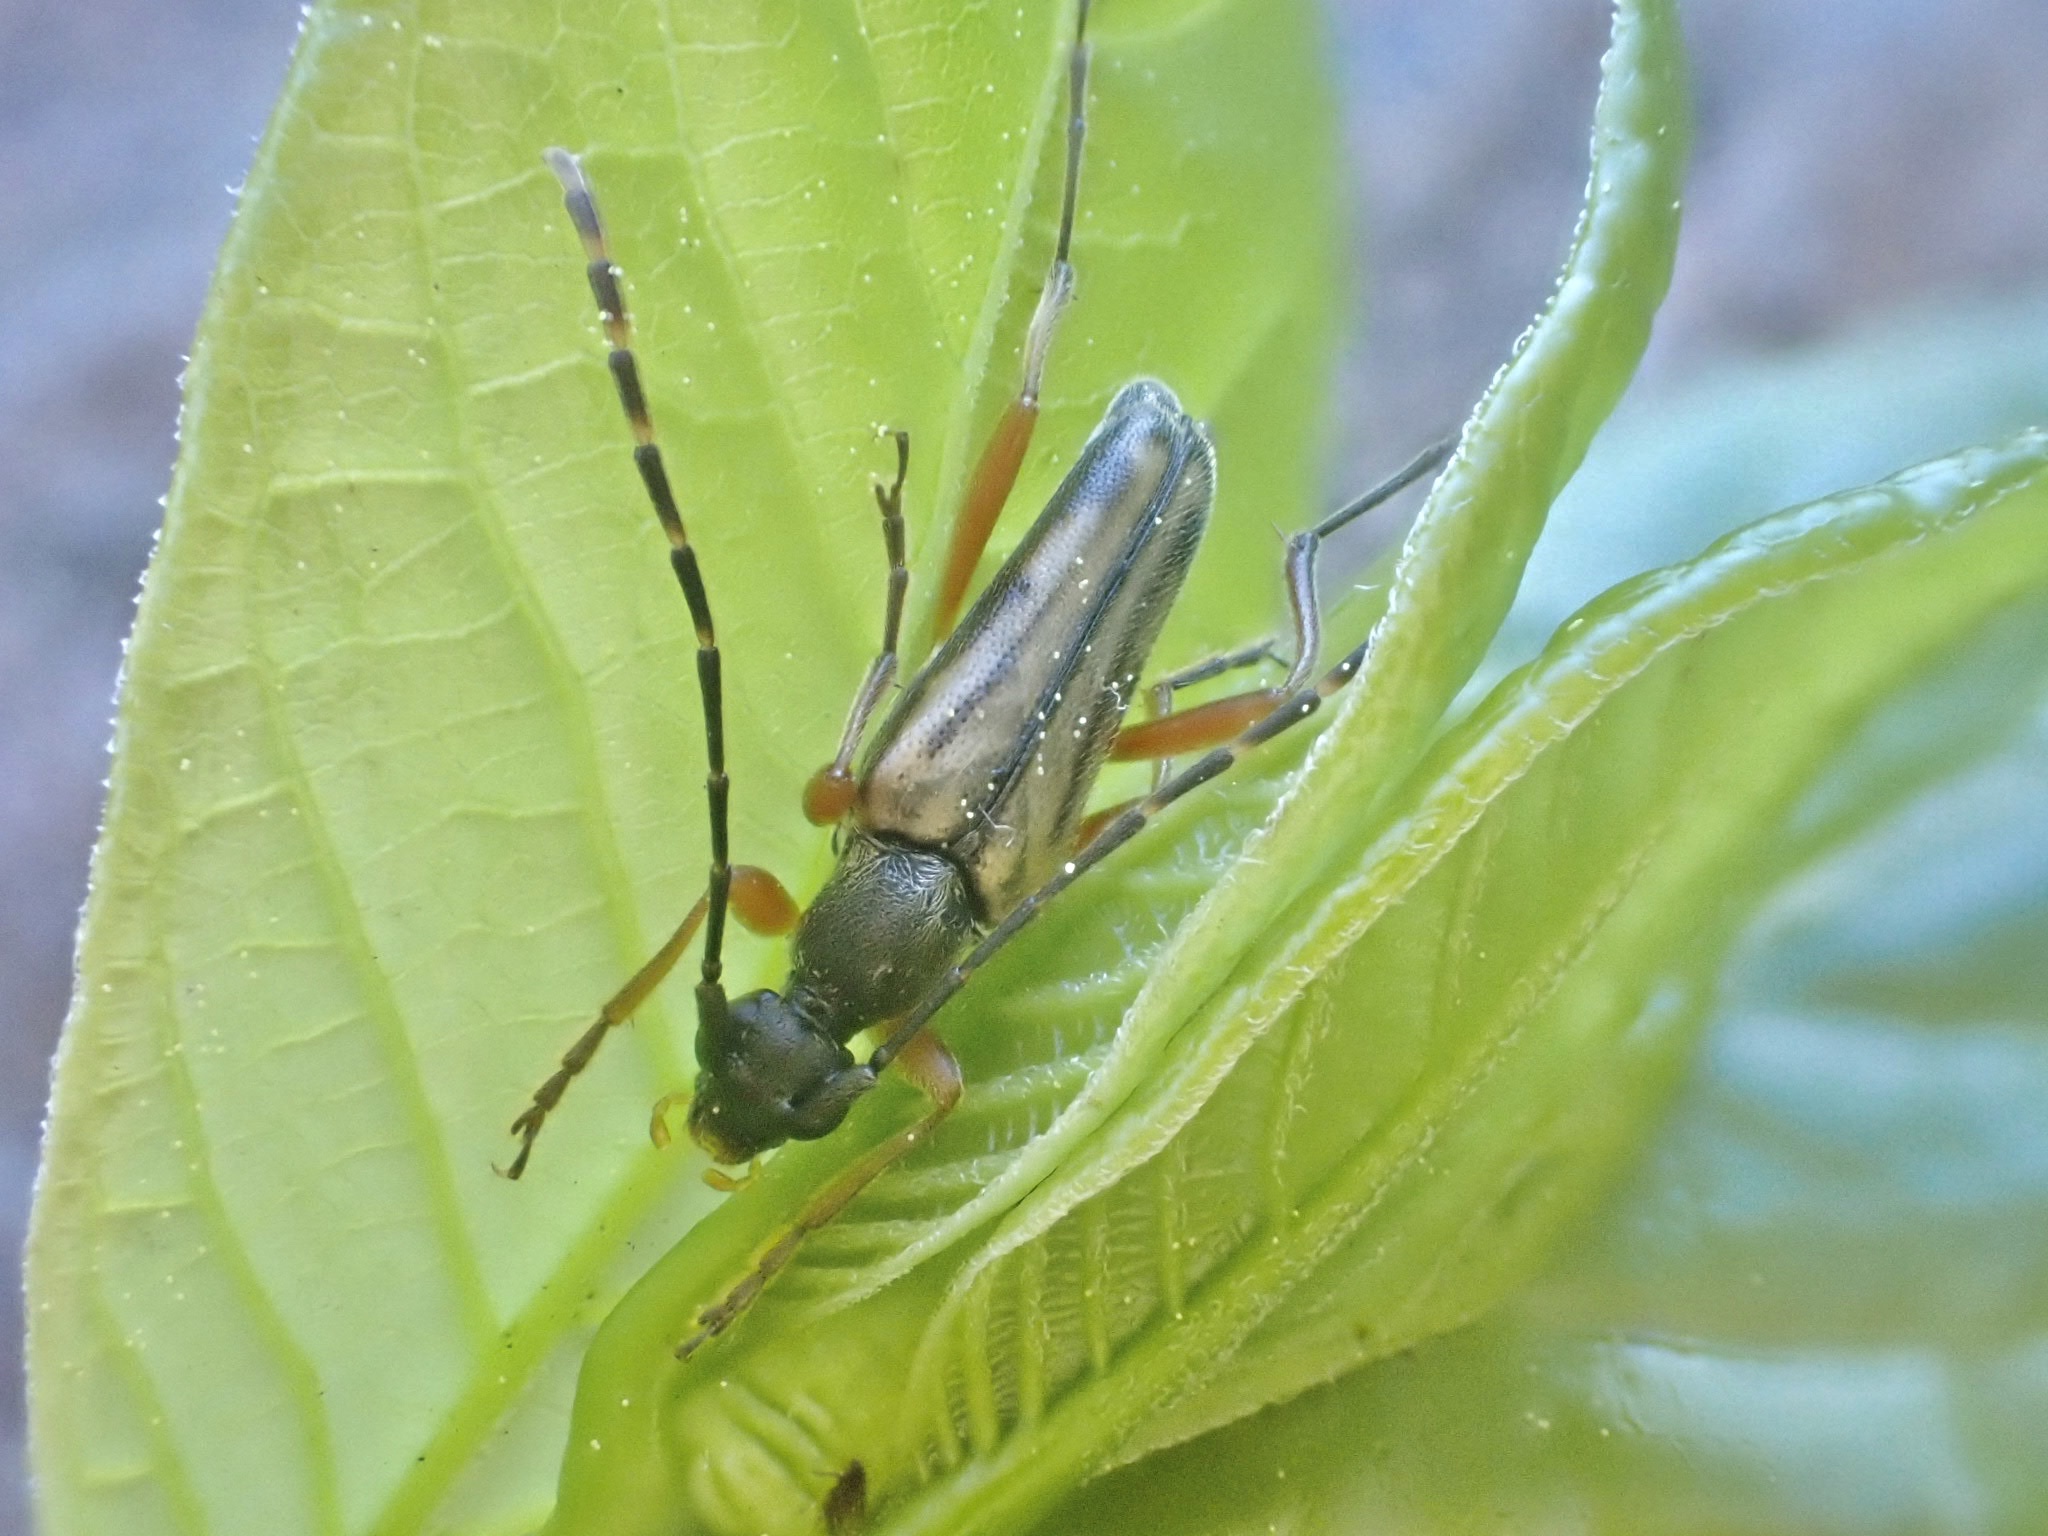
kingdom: Animalia
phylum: Arthropoda
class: Insecta
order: Coleoptera
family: Cerambycidae
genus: Analeptura
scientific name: Analeptura lineola
